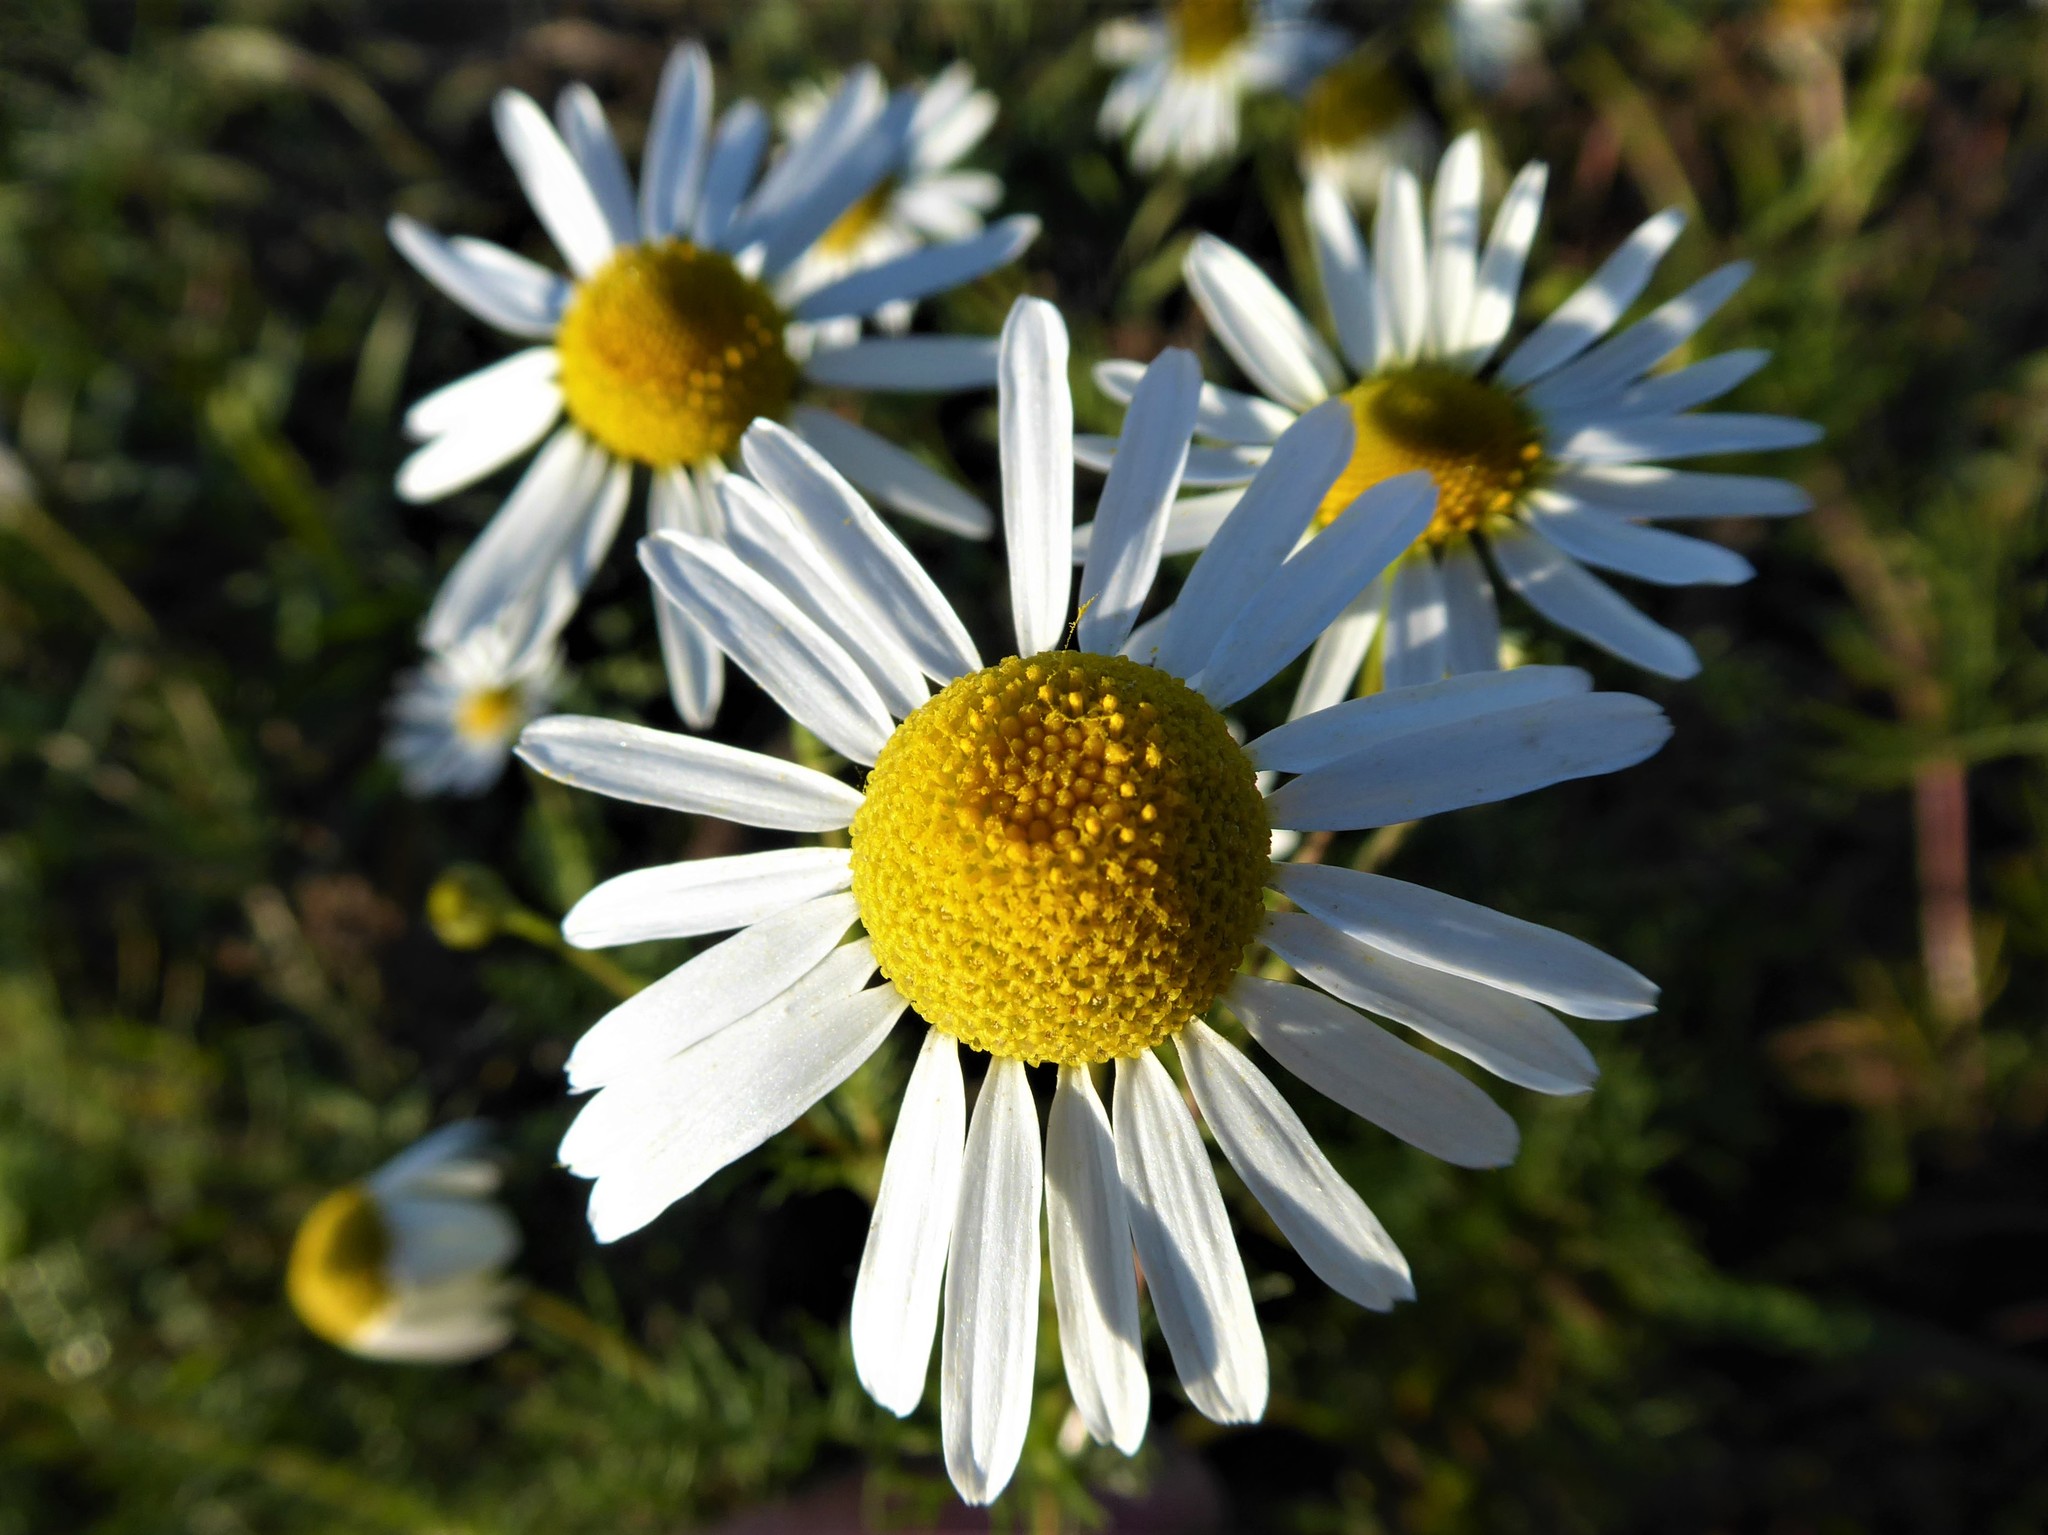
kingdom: Plantae
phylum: Tracheophyta
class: Magnoliopsida
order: Asterales
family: Asteraceae
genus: Tripleurospermum
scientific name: Tripleurospermum inodorum
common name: Scentless mayweed
